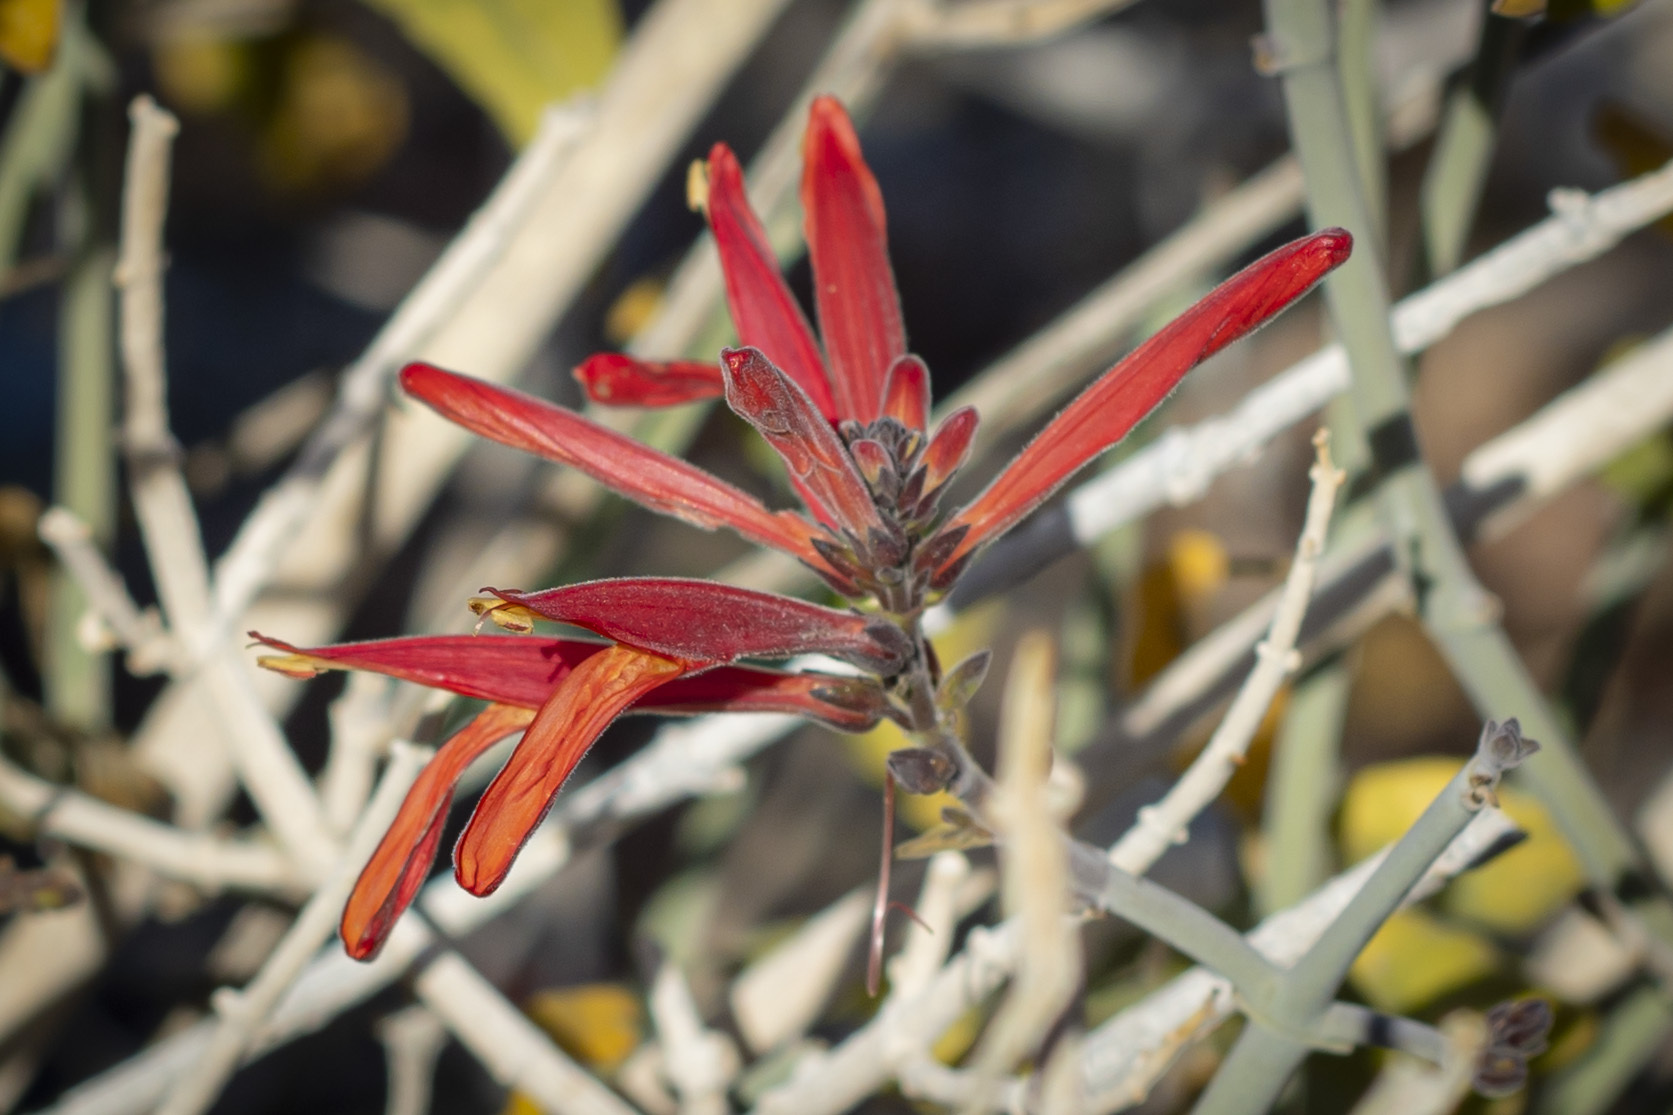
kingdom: Plantae
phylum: Tracheophyta
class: Magnoliopsida
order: Lamiales
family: Acanthaceae
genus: Justicia
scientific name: Justicia californica
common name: Chuparosa-honeysuckle
